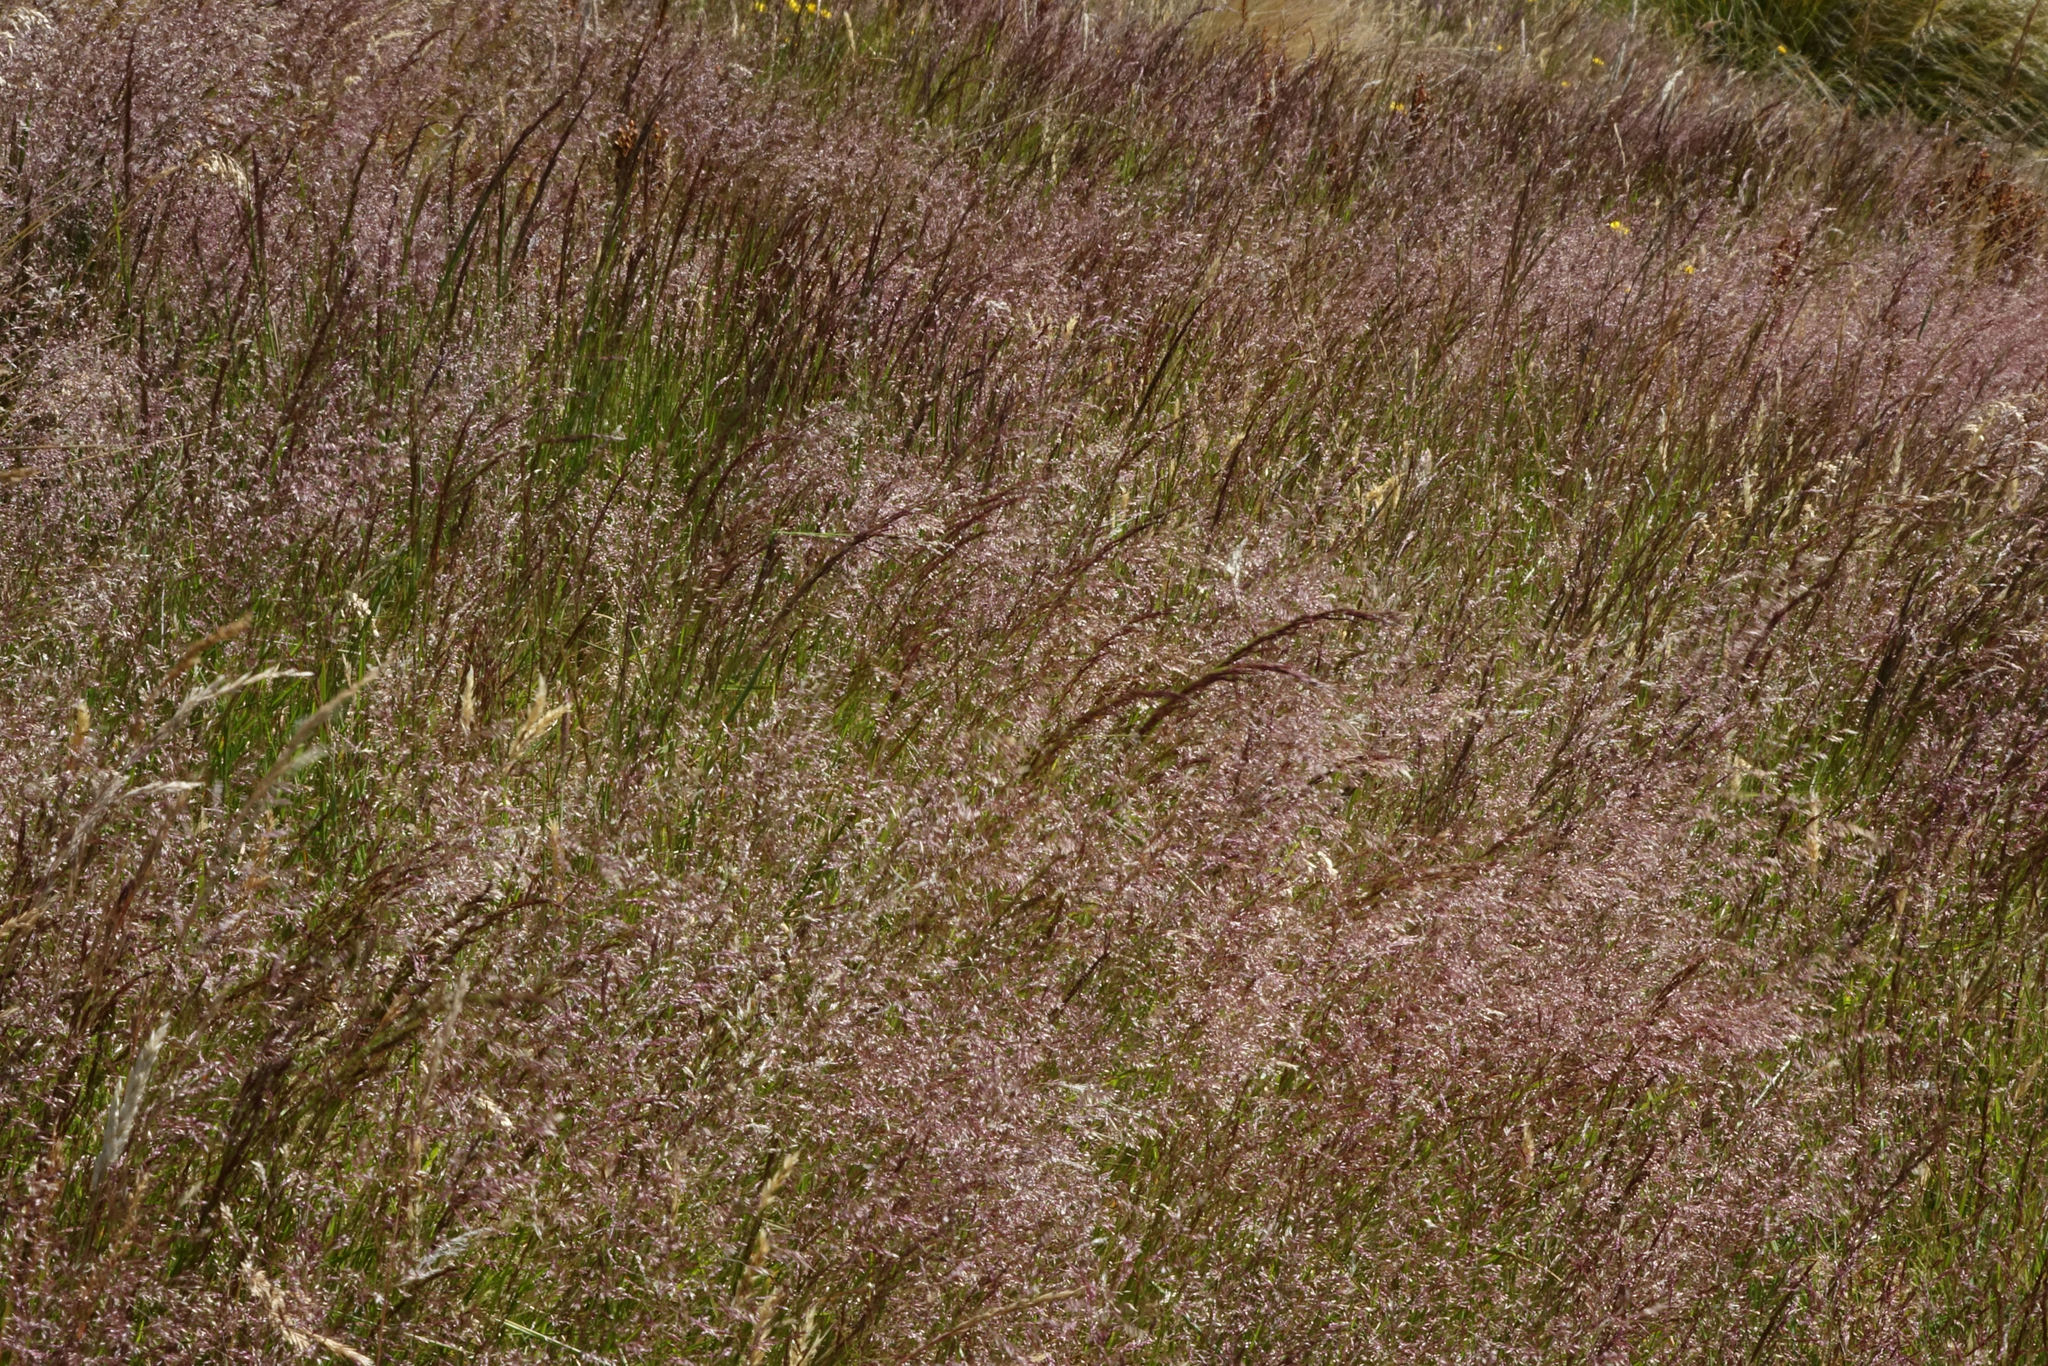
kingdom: Plantae
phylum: Tracheophyta
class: Liliopsida
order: Poales
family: Poaceae
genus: Agrostis
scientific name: Agrostis capillaris
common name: Colonial bentgrass
